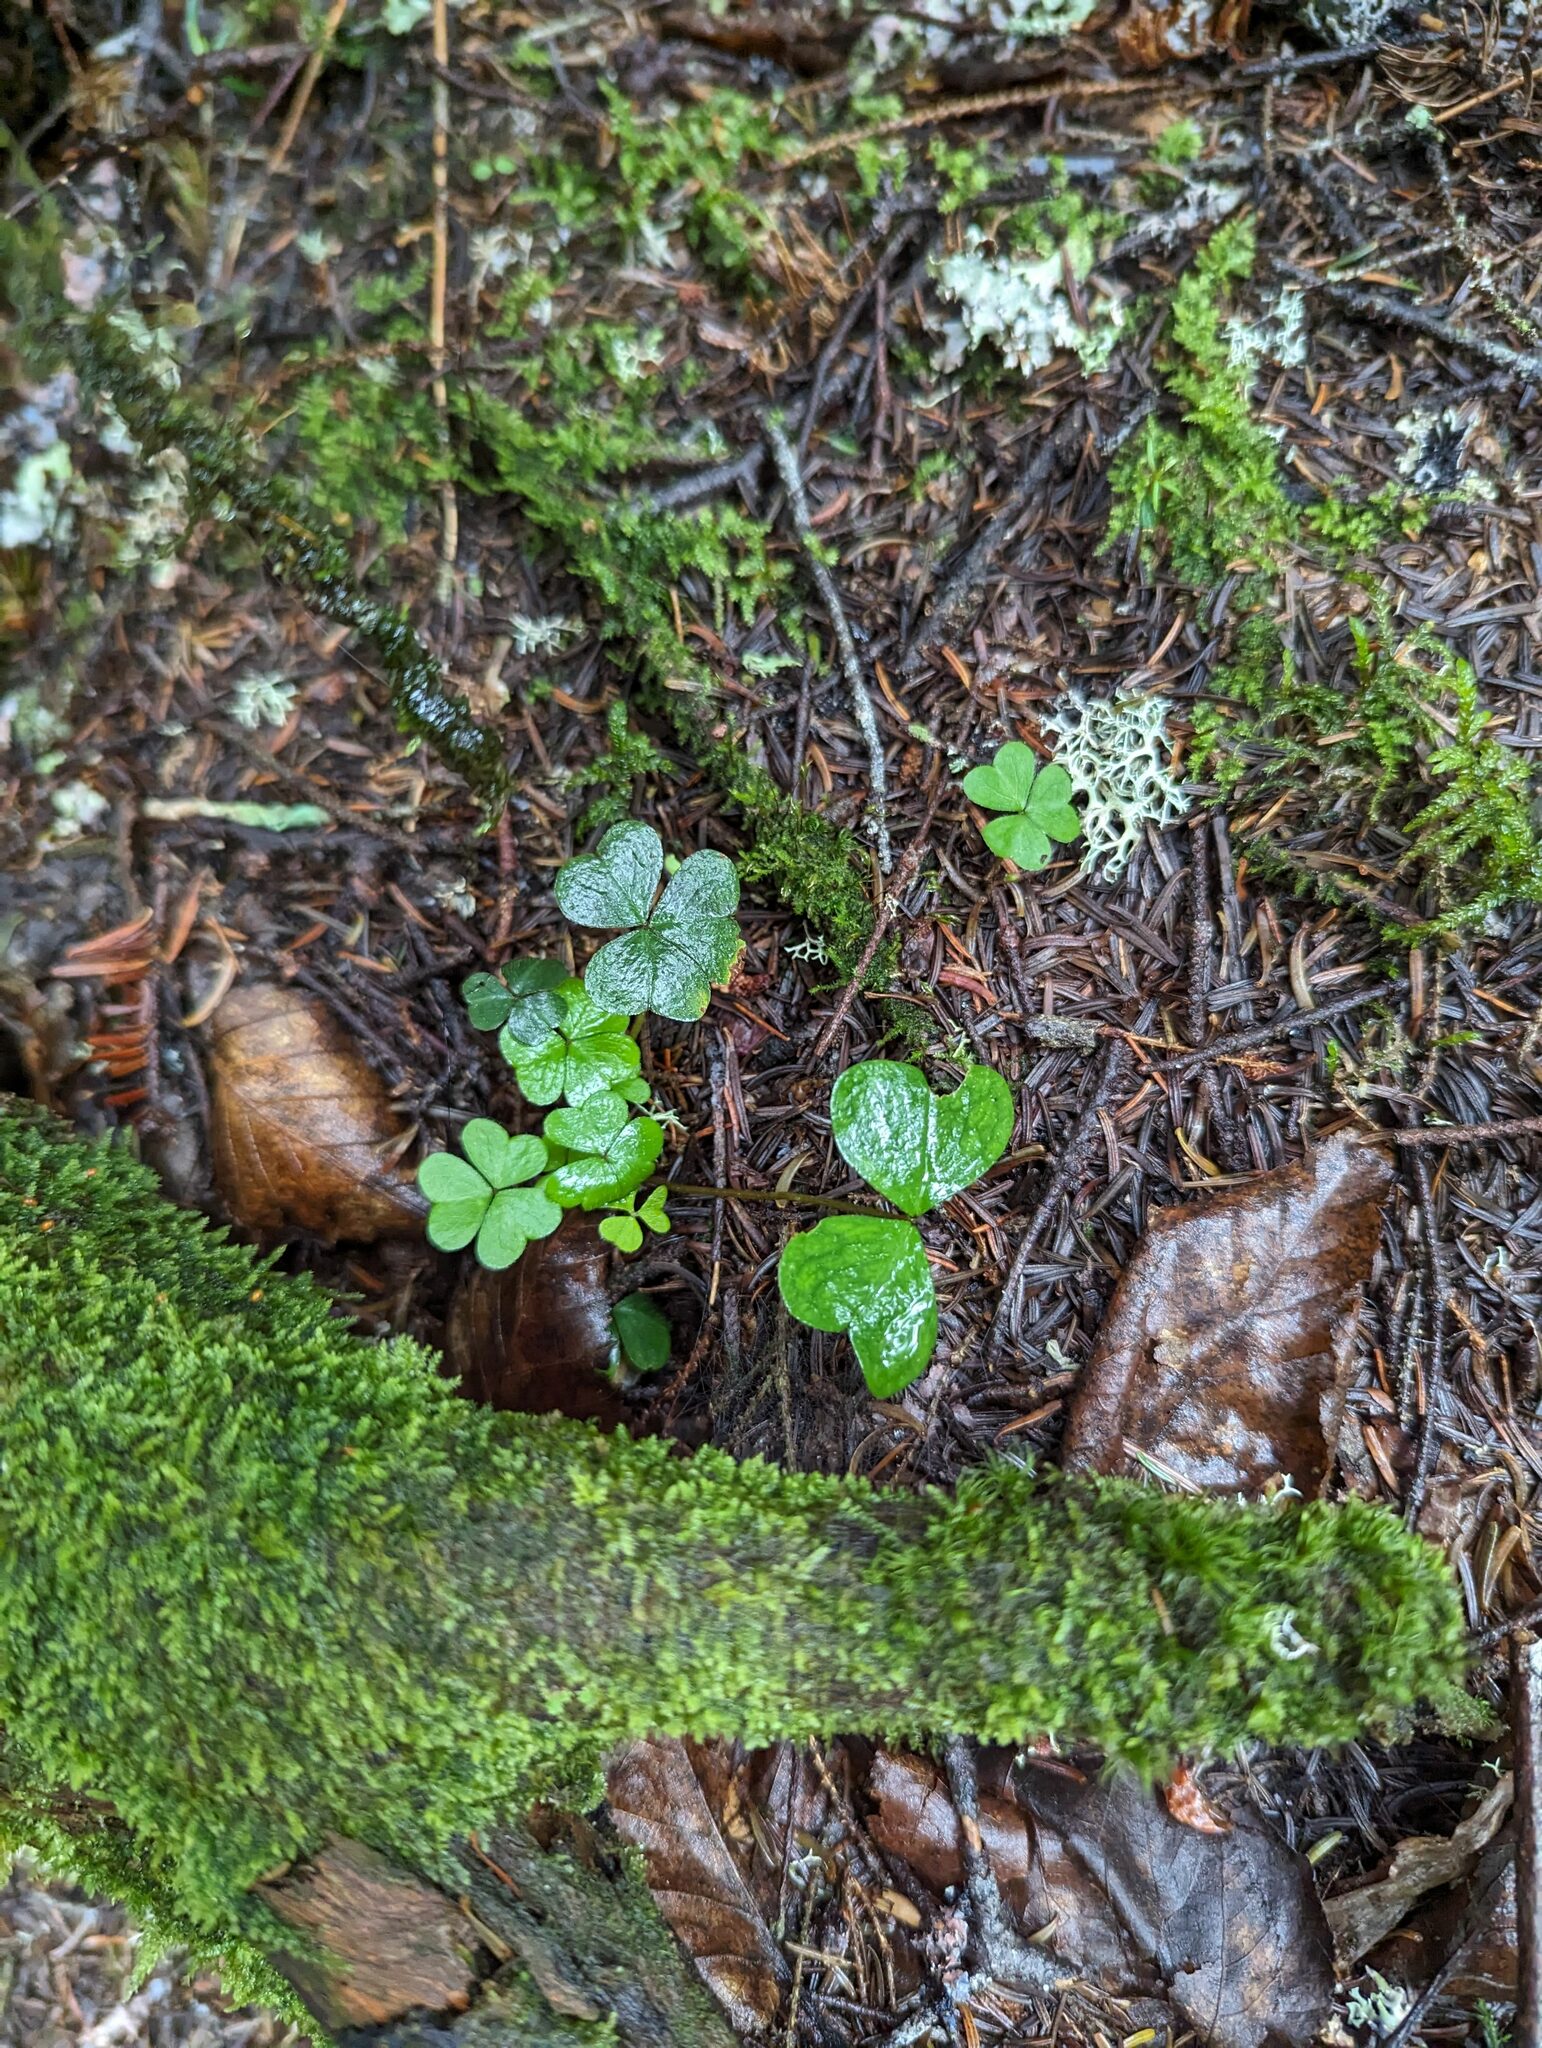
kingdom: Plantae
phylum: Tracheophyta
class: Magnoliopsida
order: Oxalidales
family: Oxalidaceae
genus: Oxalis
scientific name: Oxalis montana
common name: American wood-sorrel
